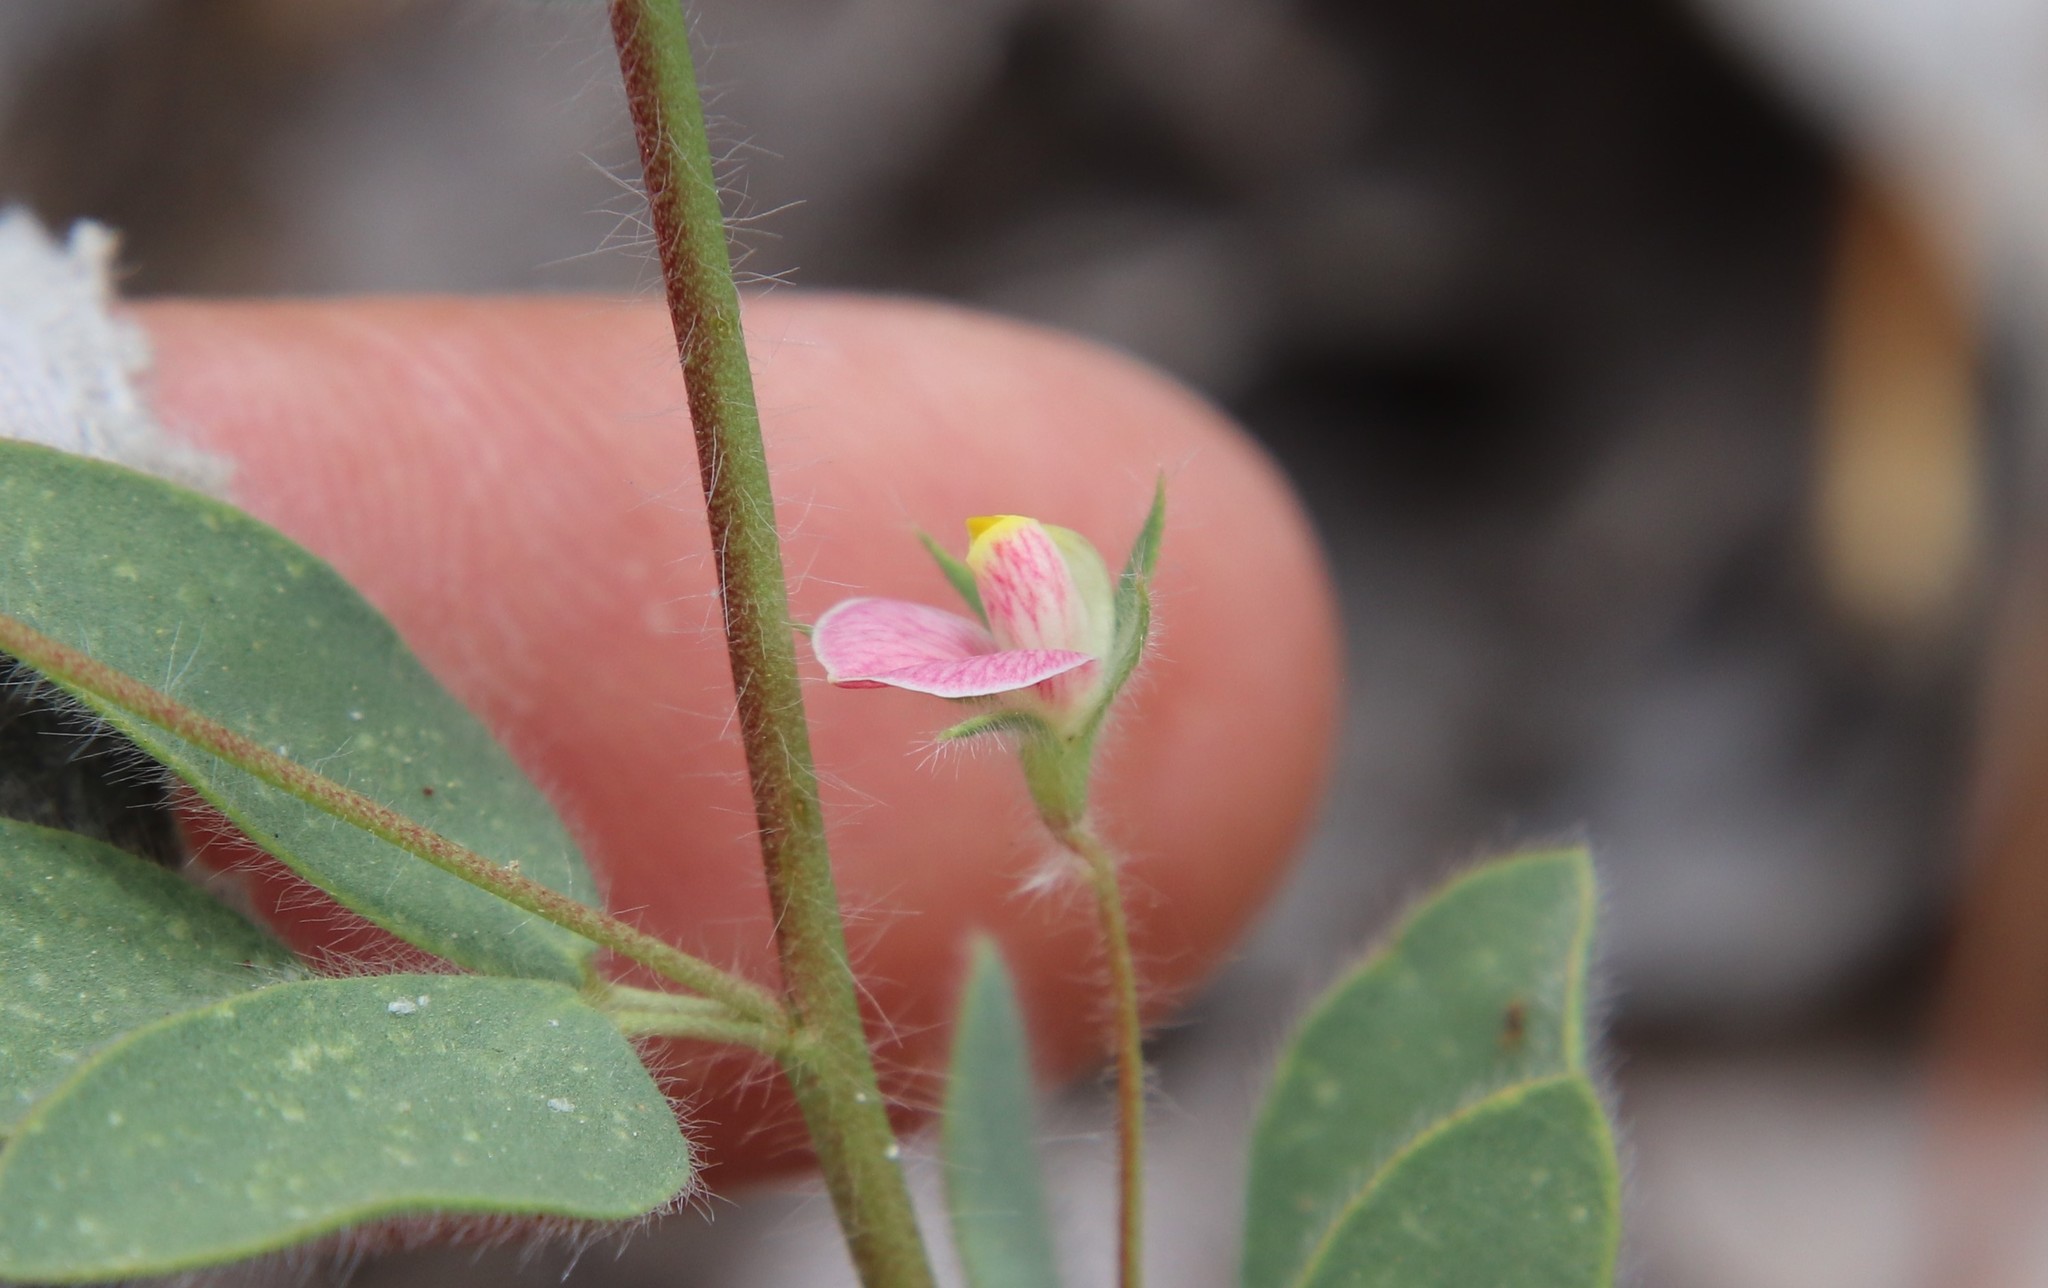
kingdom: Plantae
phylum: Tracheophyta
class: Magnoliopsida
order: Fabales
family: Fabaceae
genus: Acmispon
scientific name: Acmispon americanus
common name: American bird's-foot trefoil
